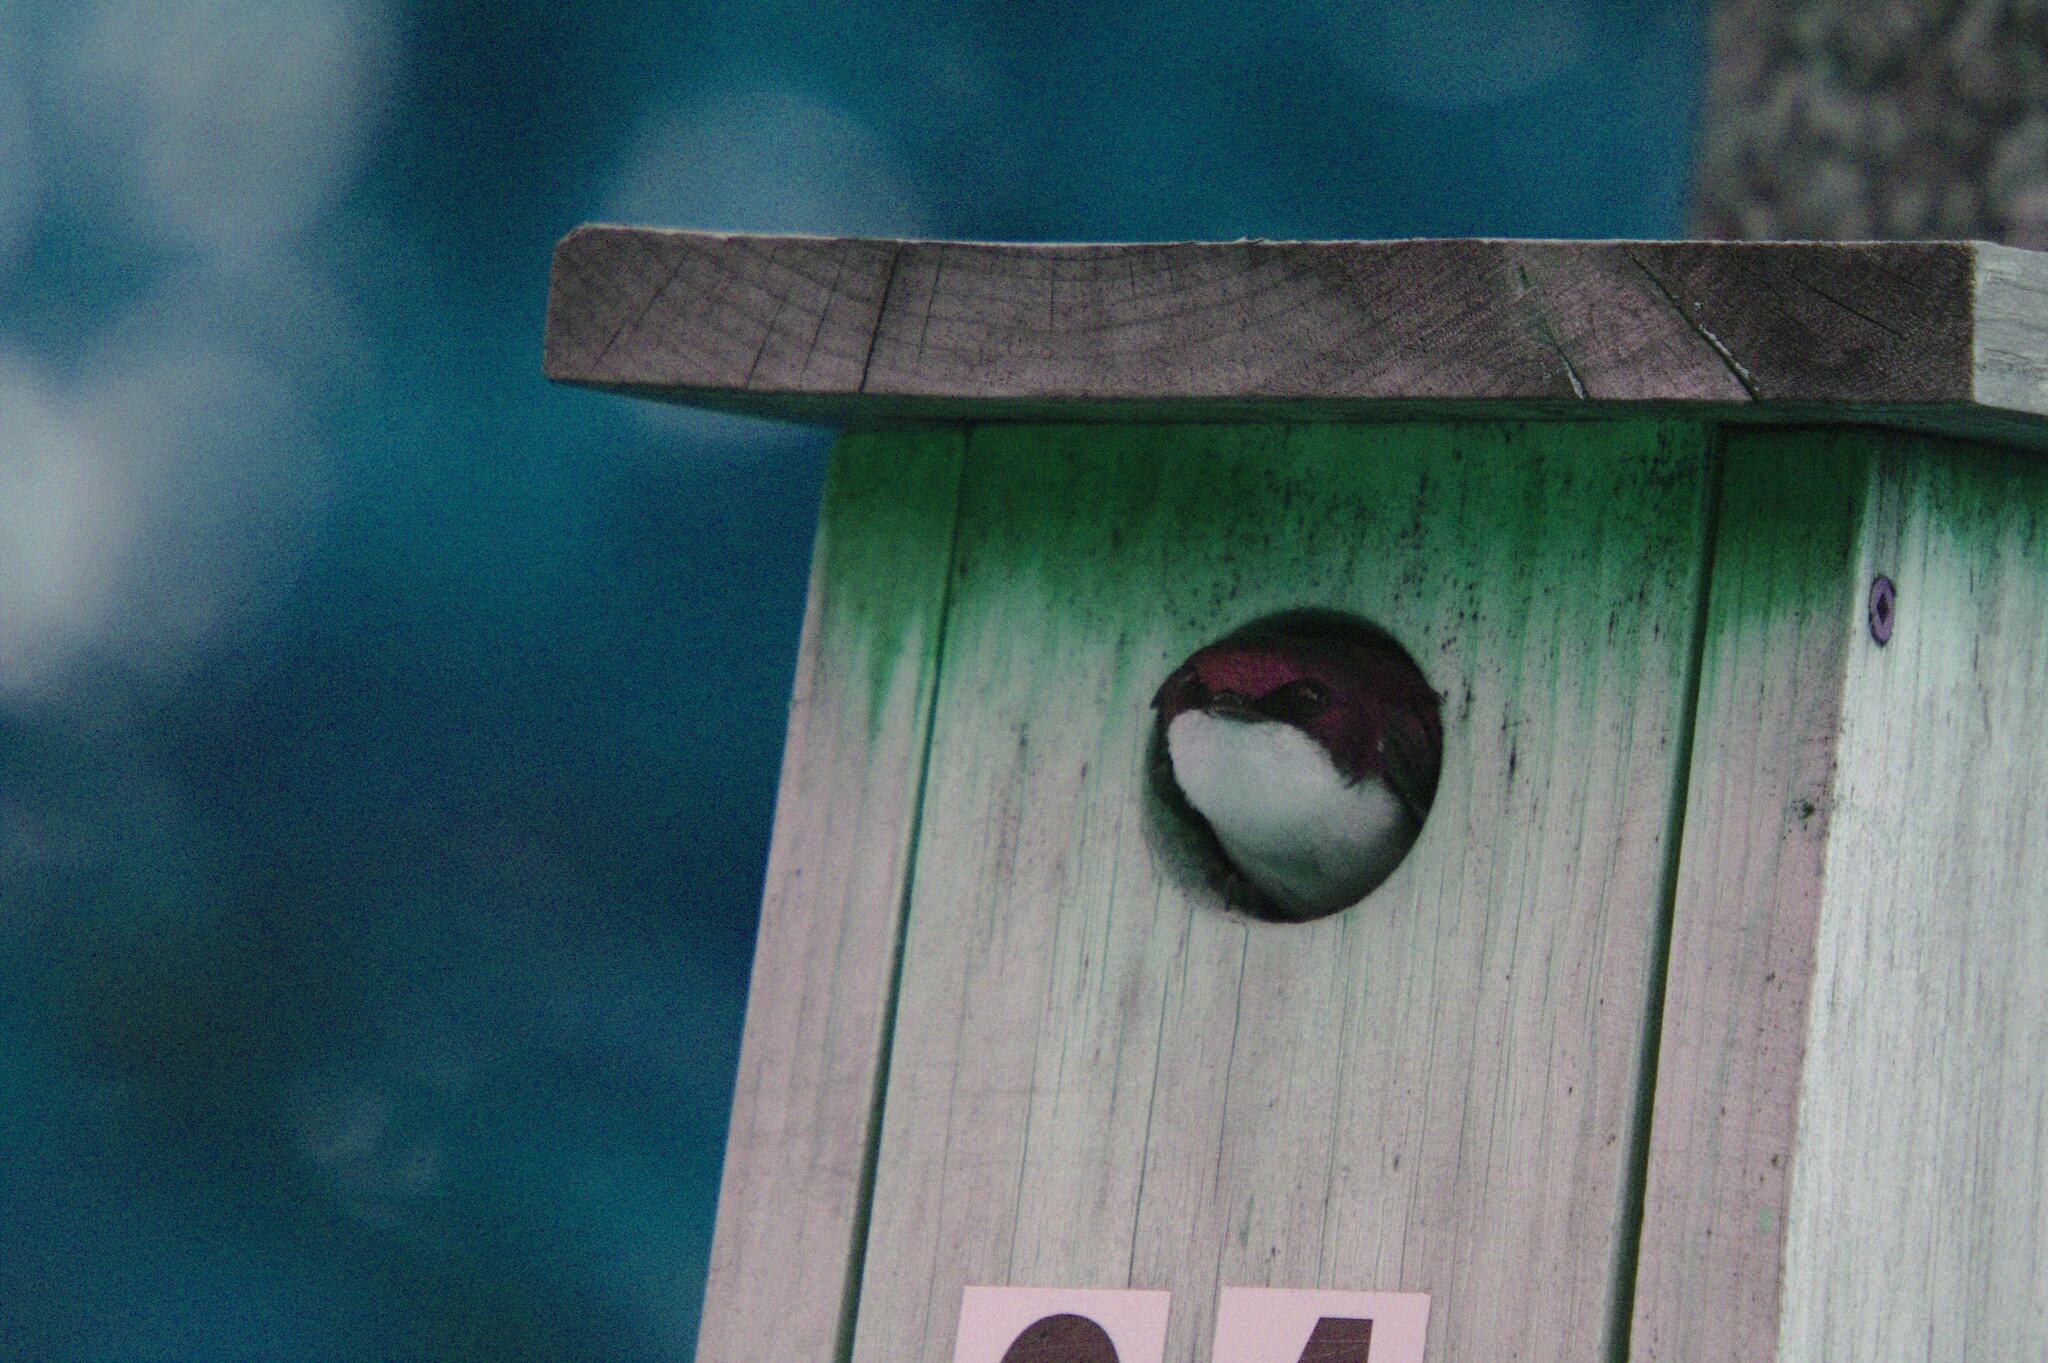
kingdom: Animalia
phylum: Chordata
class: Aves
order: Passeriformes
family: Hirundinidae
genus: Tachycineta
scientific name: Tachycineta bicolor
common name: Tree swallow
